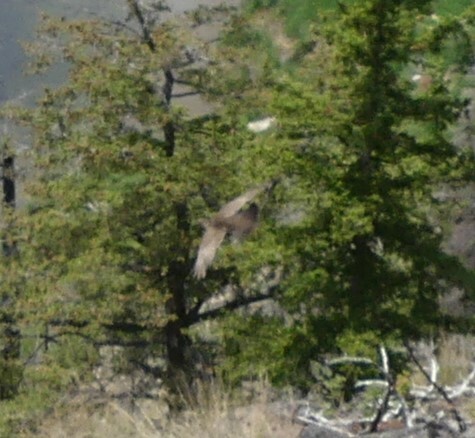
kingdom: Animalia
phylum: Chordata
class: Aves
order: Galliformes
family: Phasianidae
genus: Bonasa
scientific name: Bonasa umbellus
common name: Ruffed grouse
